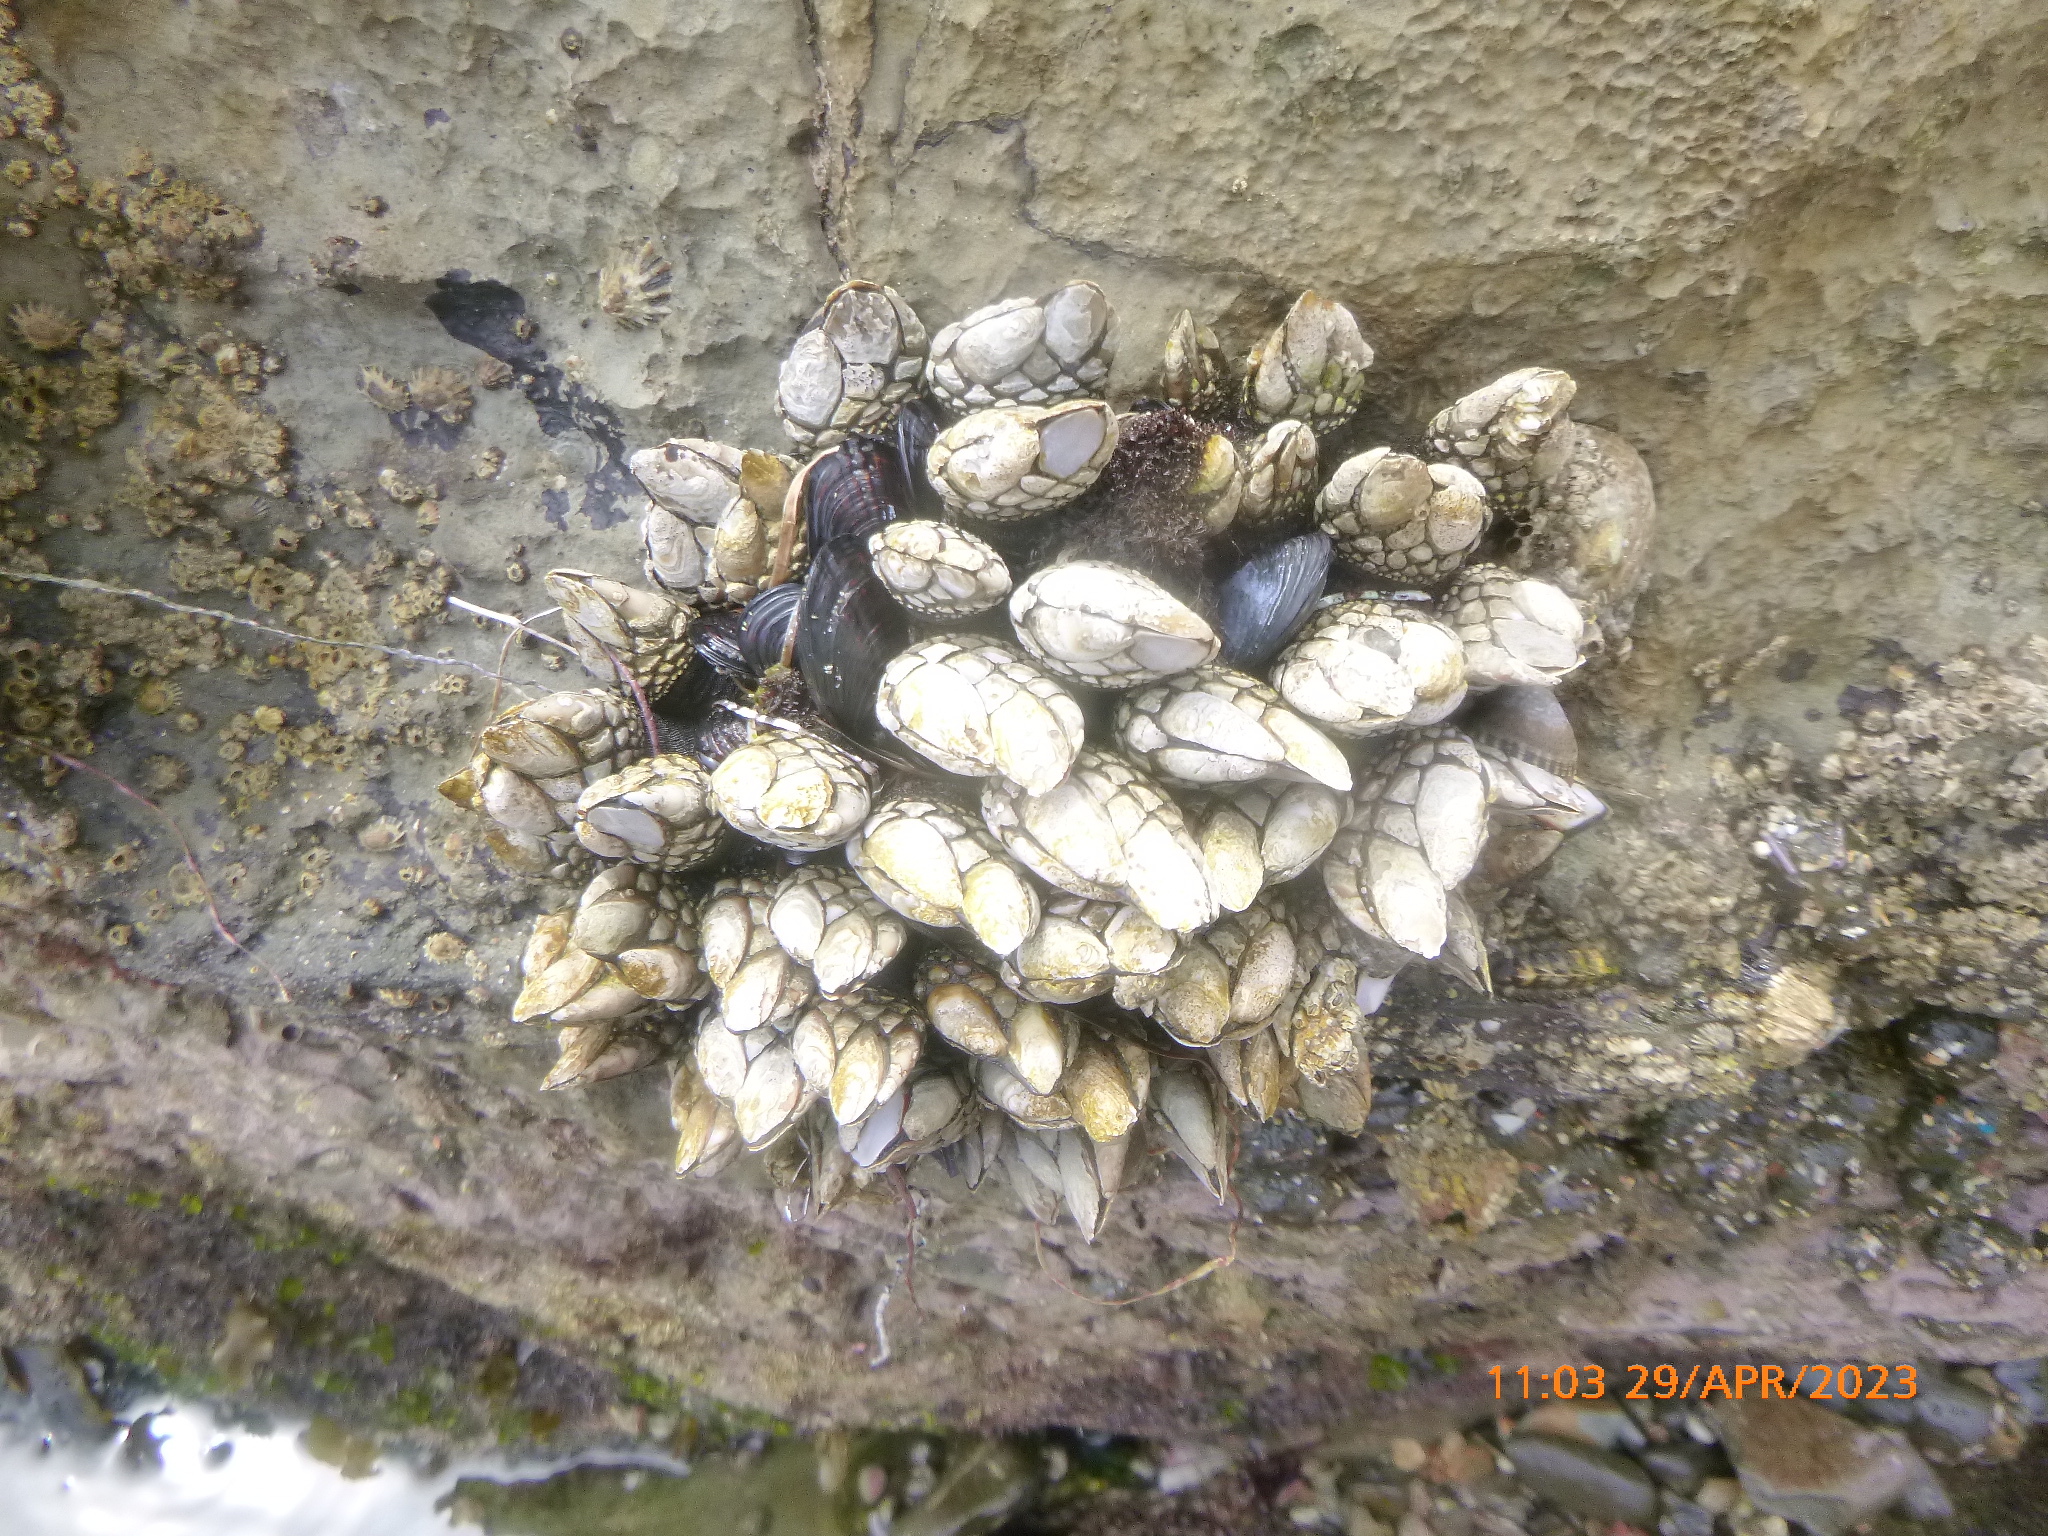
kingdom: Animalia
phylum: Arthropoda
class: Maxillopoda
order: Pedunculata
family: Pollicipedidae
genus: Pollicipes
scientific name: Pollicipes polymerus
